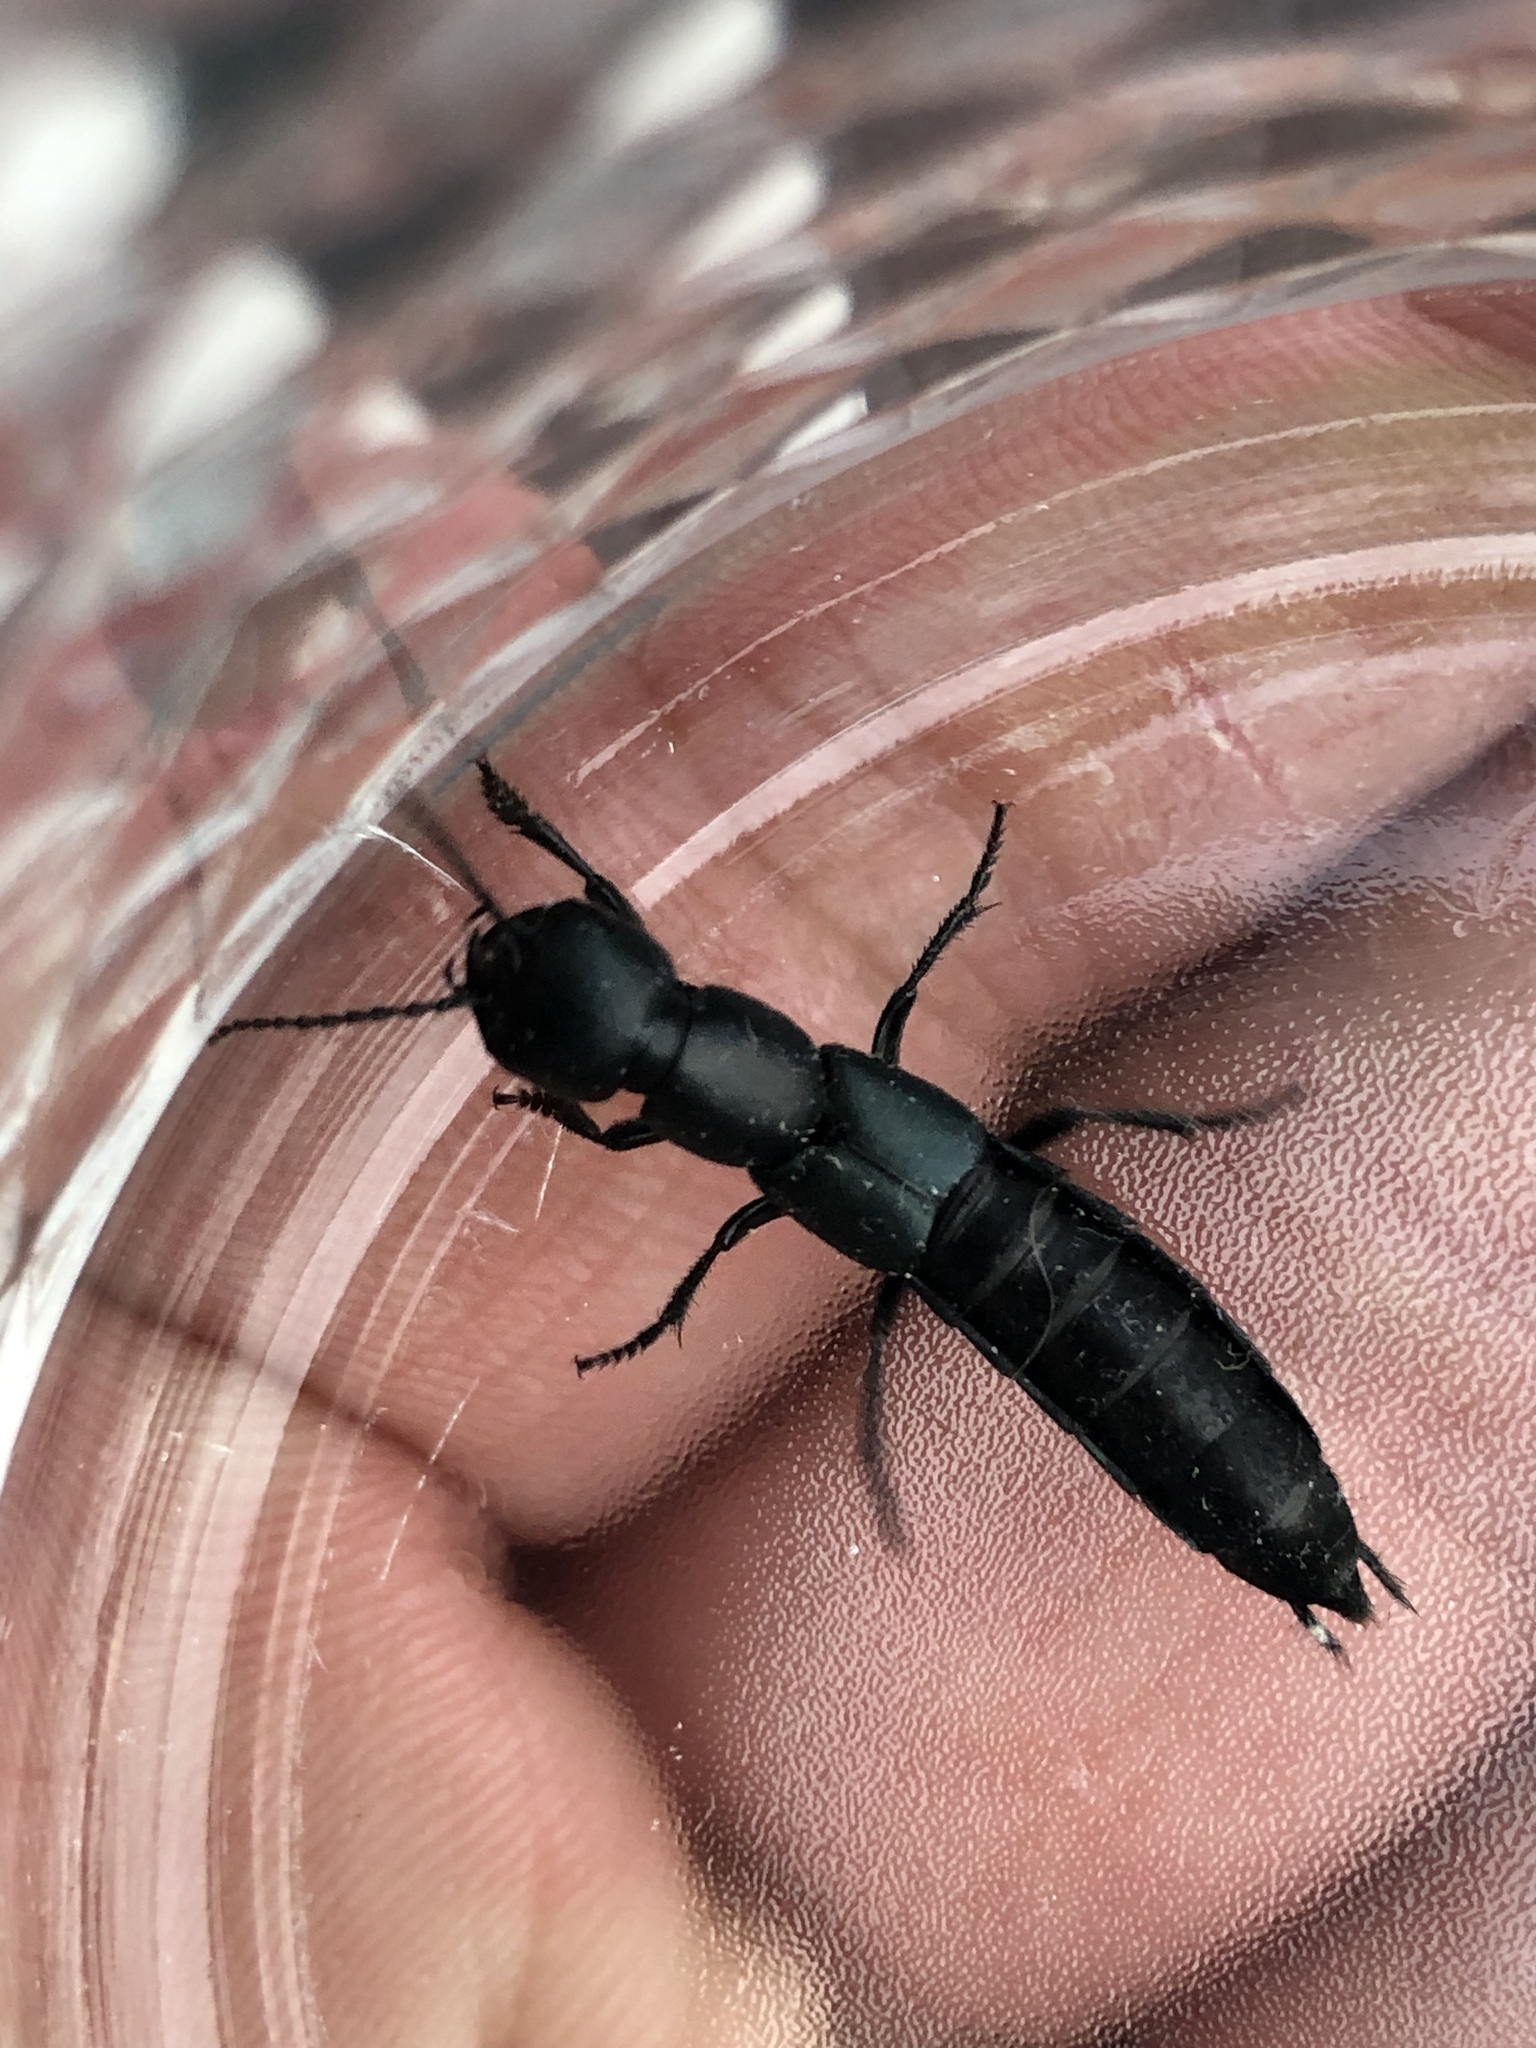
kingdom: Animalia
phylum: Arthropoda
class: Insecta
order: Coleoptera
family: Staphylinidae
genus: Ocypus
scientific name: Ocypus ophthalmicus
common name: Blue rove-beetle
